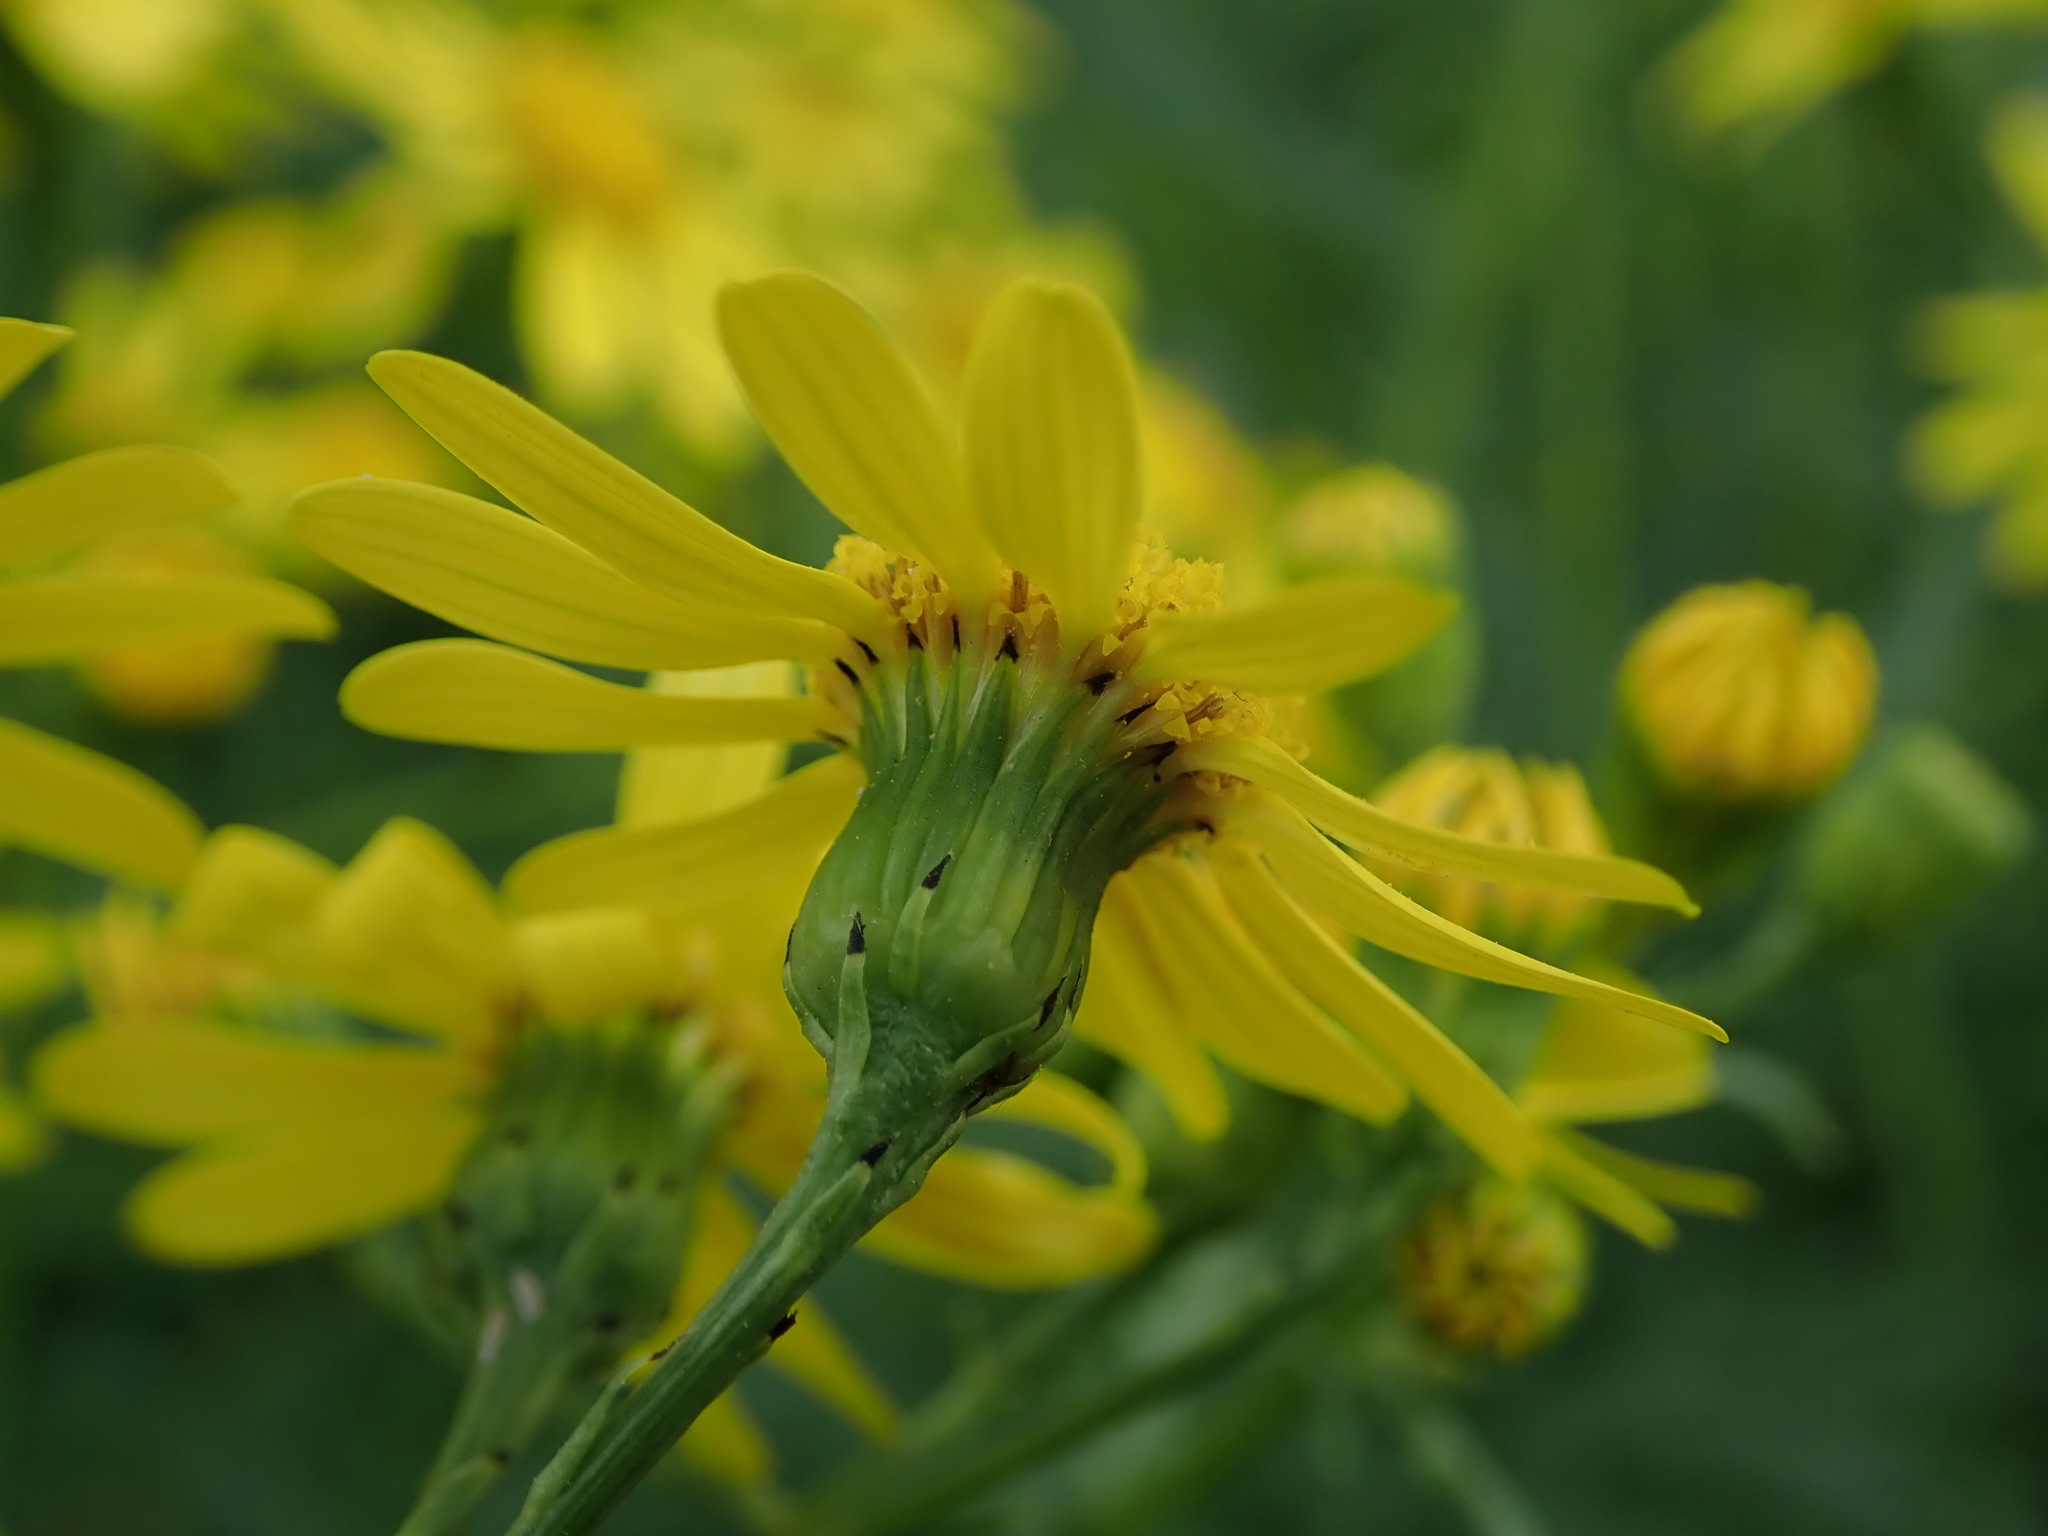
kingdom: Plantae
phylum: Tracheophyta
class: Magnoliopsida
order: Asterales
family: Asteraceae
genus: Senecio
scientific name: Senecio squalidus
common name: Oxford ragwort
